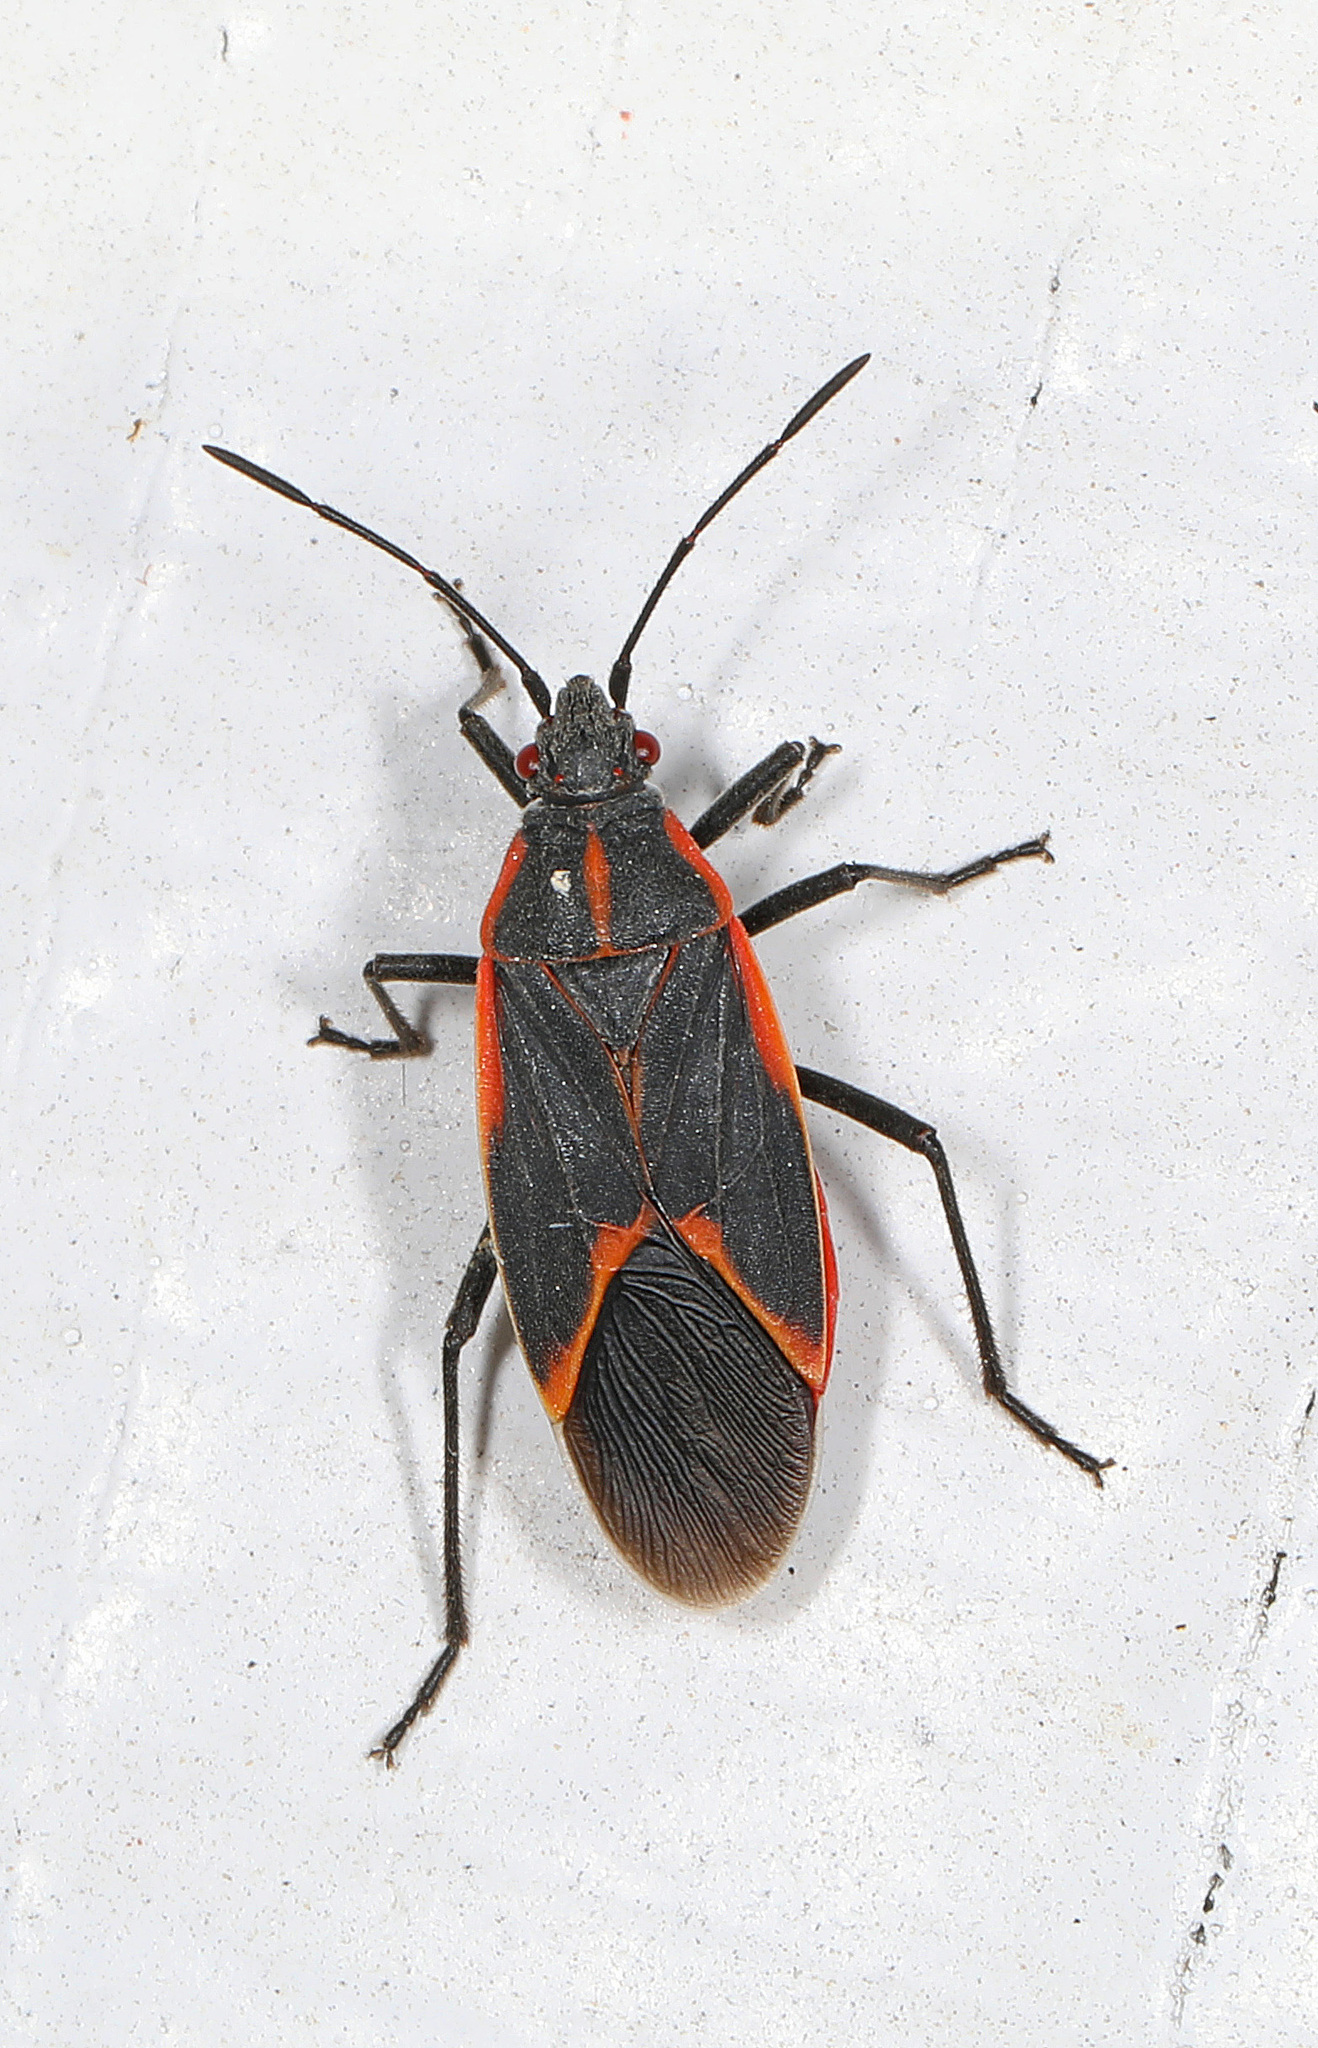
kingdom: Animalia
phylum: Arthropoda
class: Insecta
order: Hemiptera
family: Rhopalidae
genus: Boisea
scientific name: Boisea trivittata
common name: Boxelder bug
